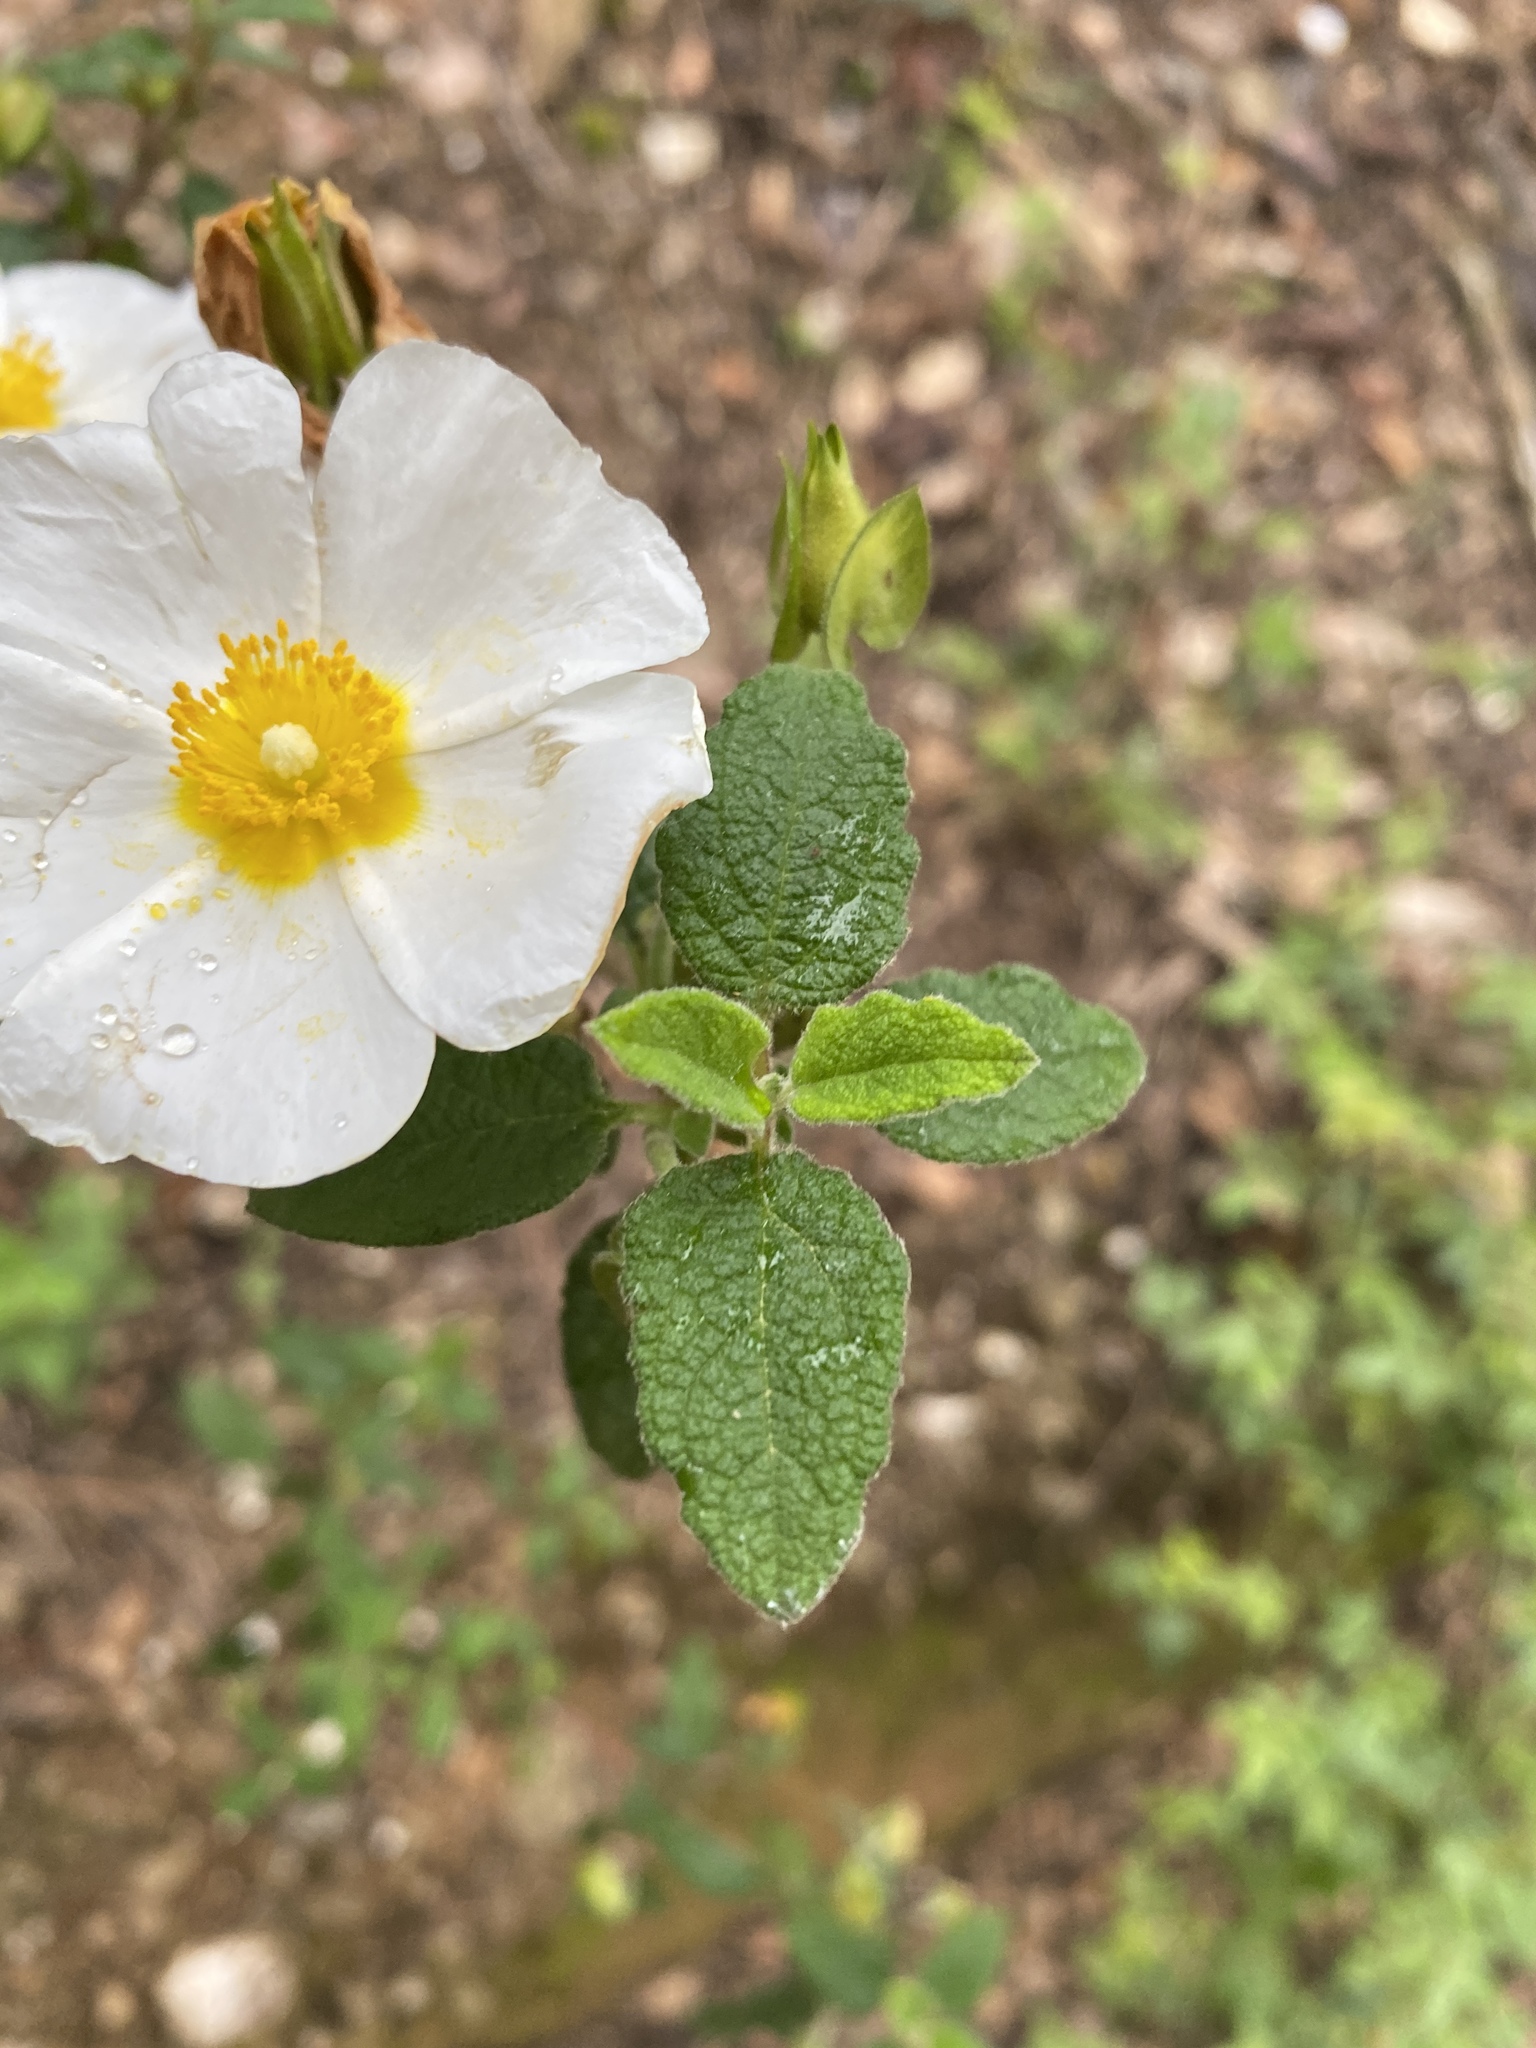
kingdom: Plantae
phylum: Tracheophyta
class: Magnoliopsida
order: Malvales
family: Cistaceae
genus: Cistus
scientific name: Cistus salviifolius
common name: Salvia cistus
